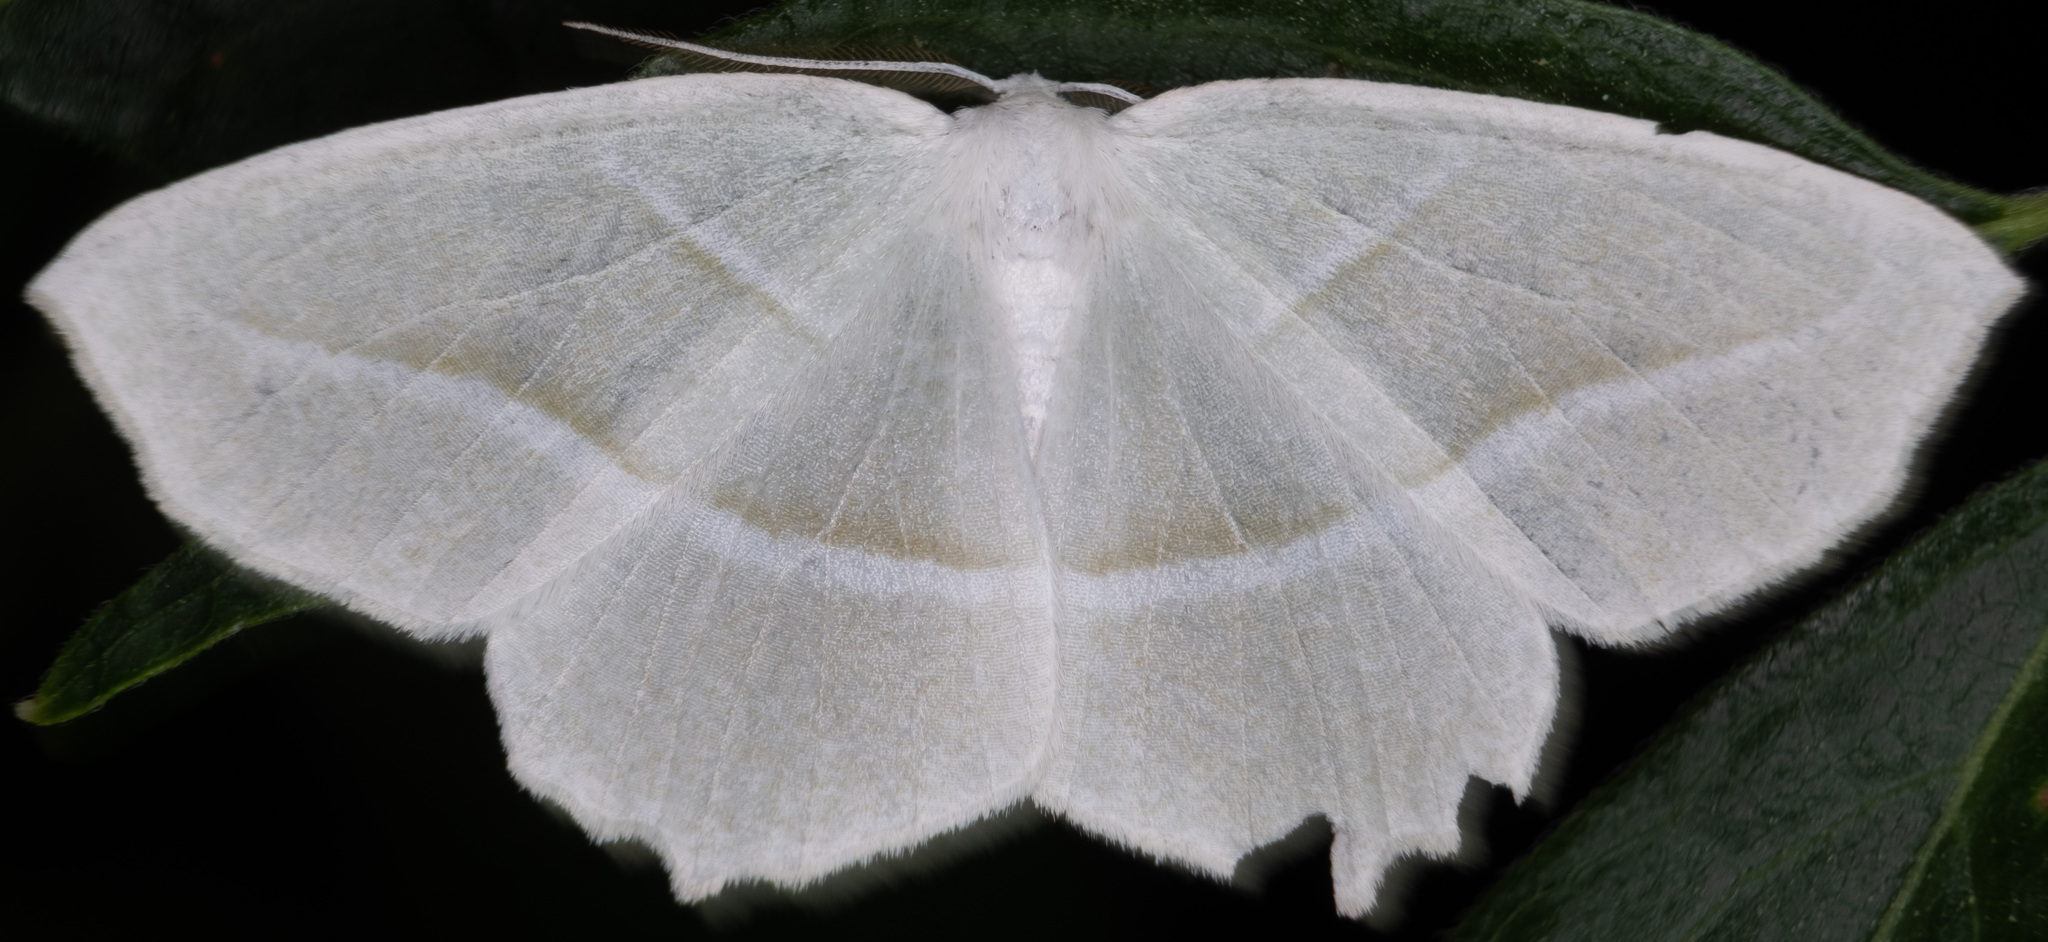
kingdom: Animalia
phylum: Arthropoda
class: Insecta
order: Lepidoptera
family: Geometridae
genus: Campaea
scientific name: Campaea perlata
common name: Fringed looper
